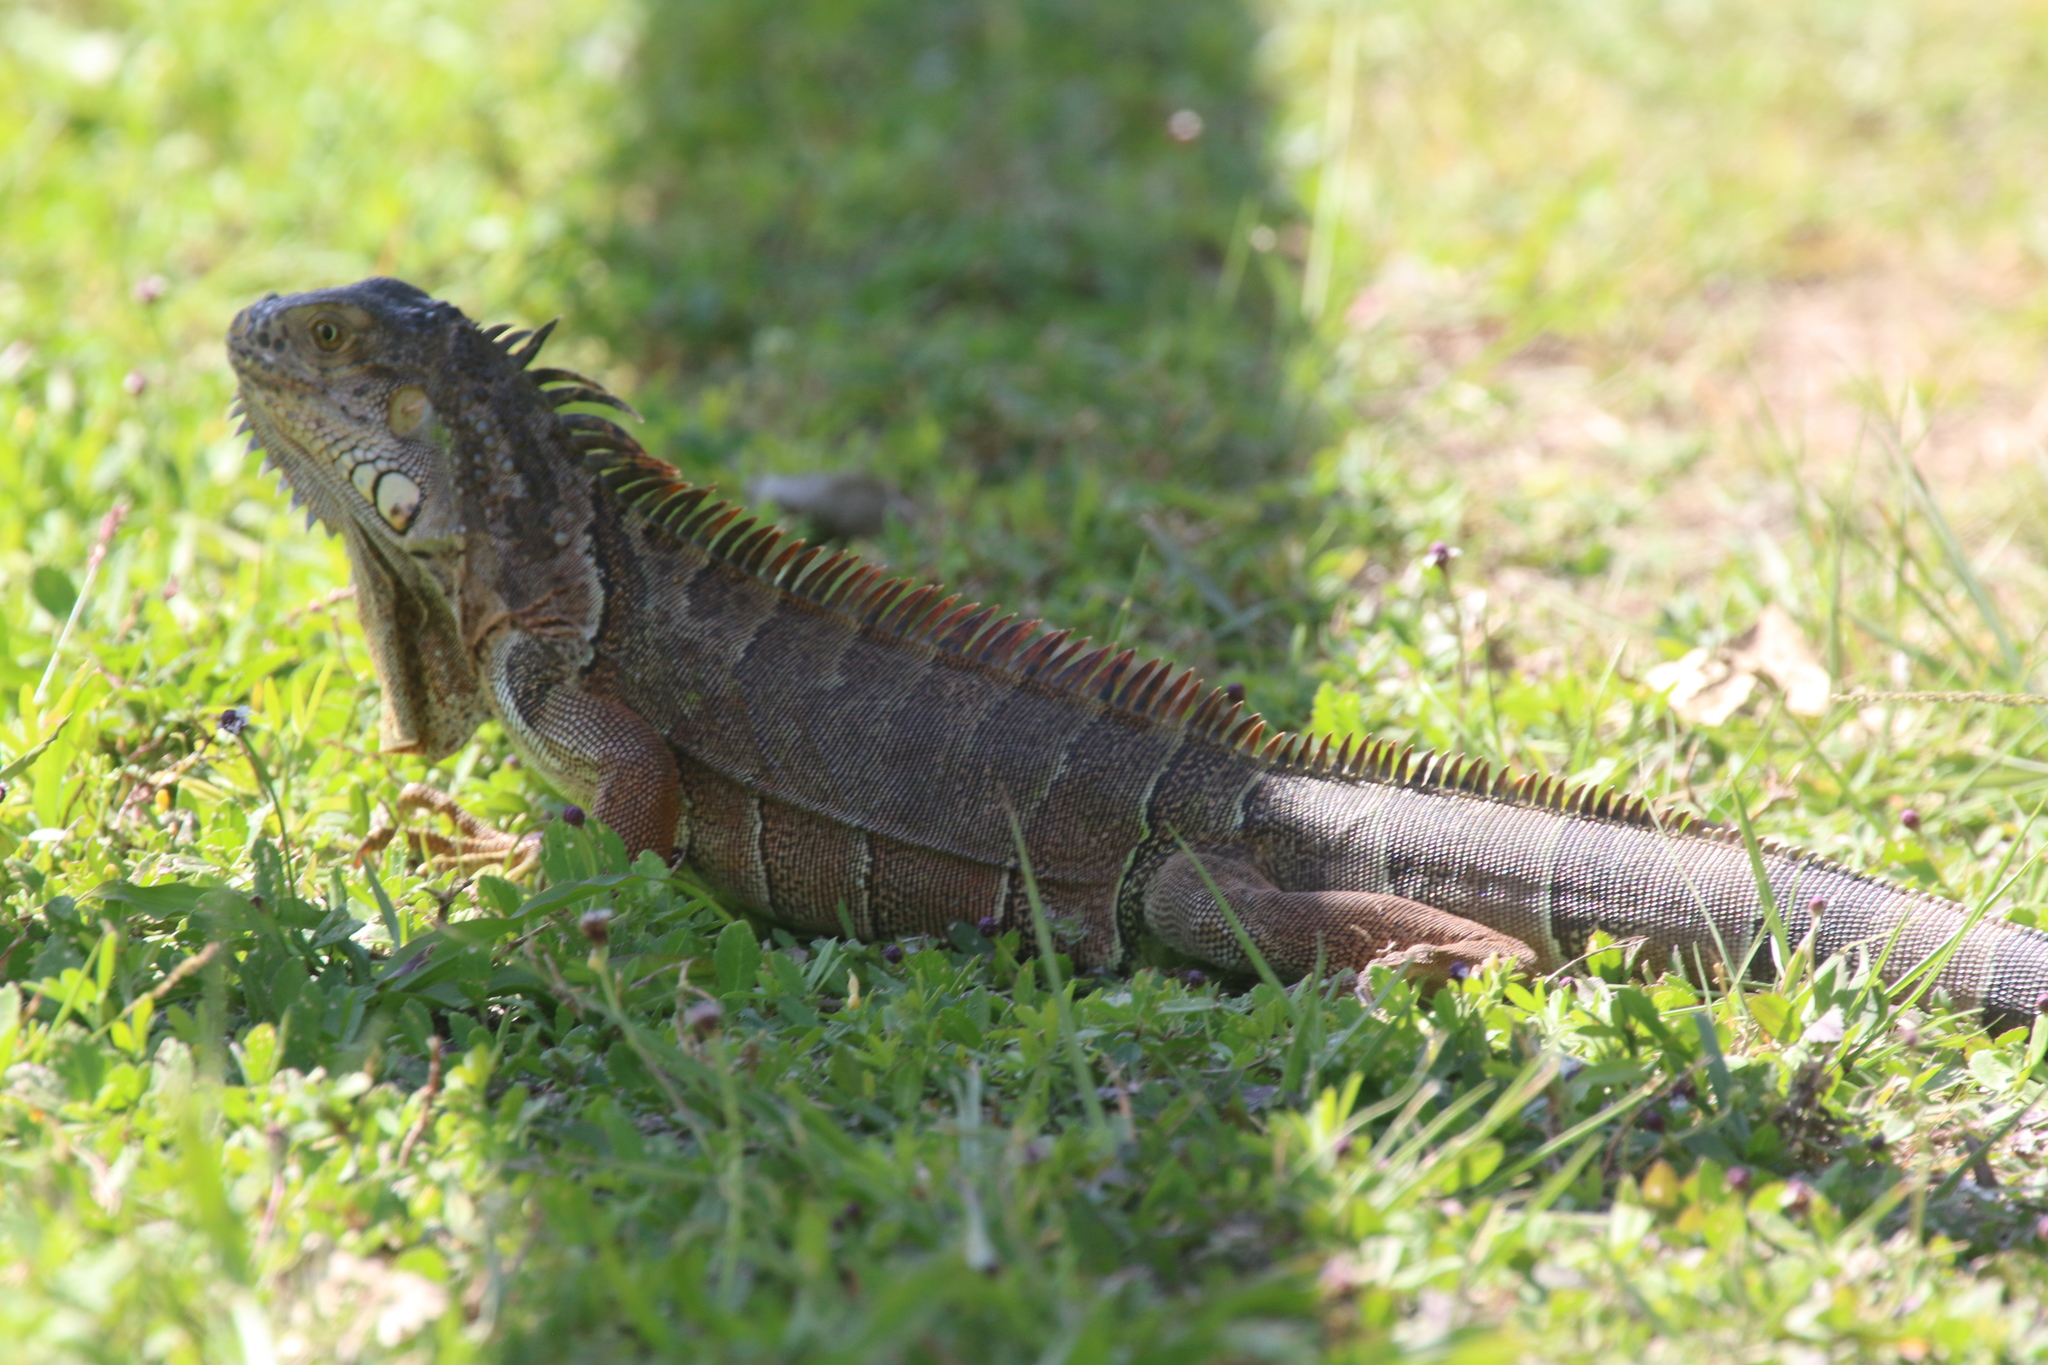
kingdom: Animalia
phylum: Chordata
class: Squamata
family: Iguanidae
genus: Iguana
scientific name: Iguana iguana
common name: Green iguana
